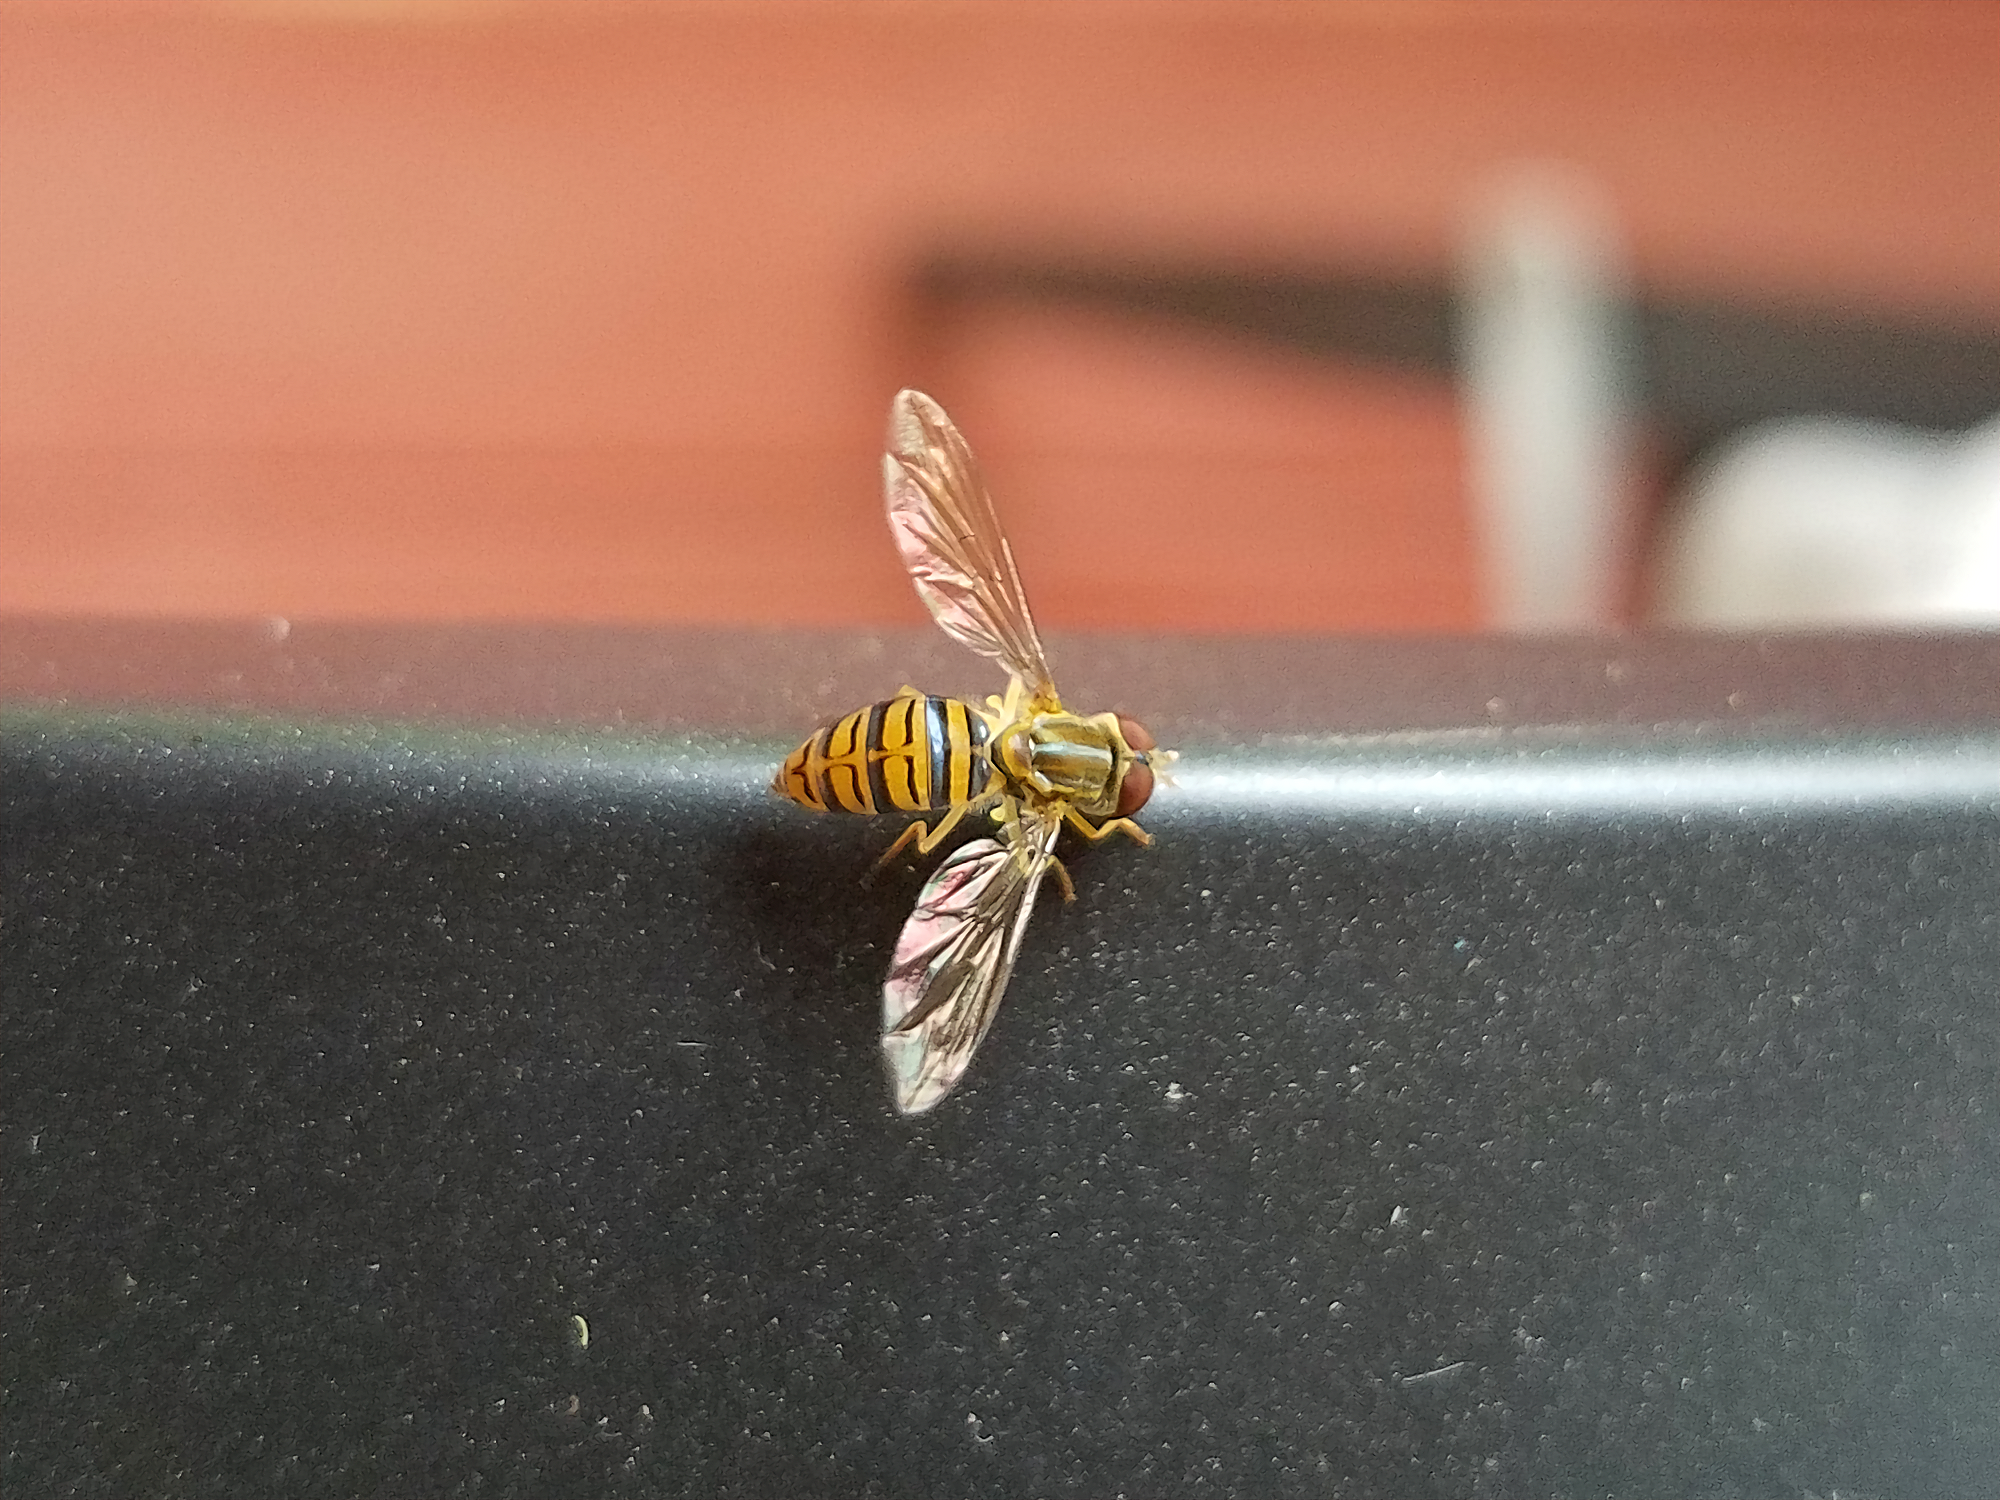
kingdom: Animalia
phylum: Arthropoda
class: Insecta
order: Diptera
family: Syrphidae
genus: Toxomerus
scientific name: Toxomerus politus
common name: Maize calligrapher
